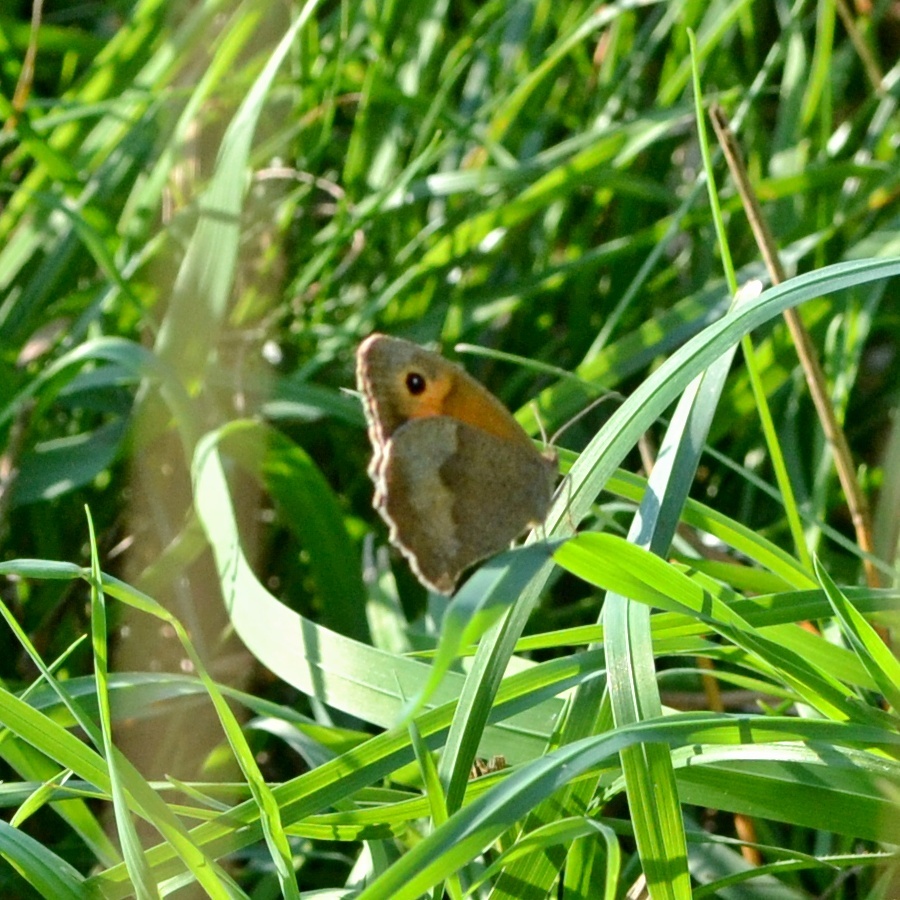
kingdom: Animalia
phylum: Arthropoda
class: Insecta
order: Lepidoptera
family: Nymphalidae
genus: Maniola
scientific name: Maniola jurtina
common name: Meadow brown
